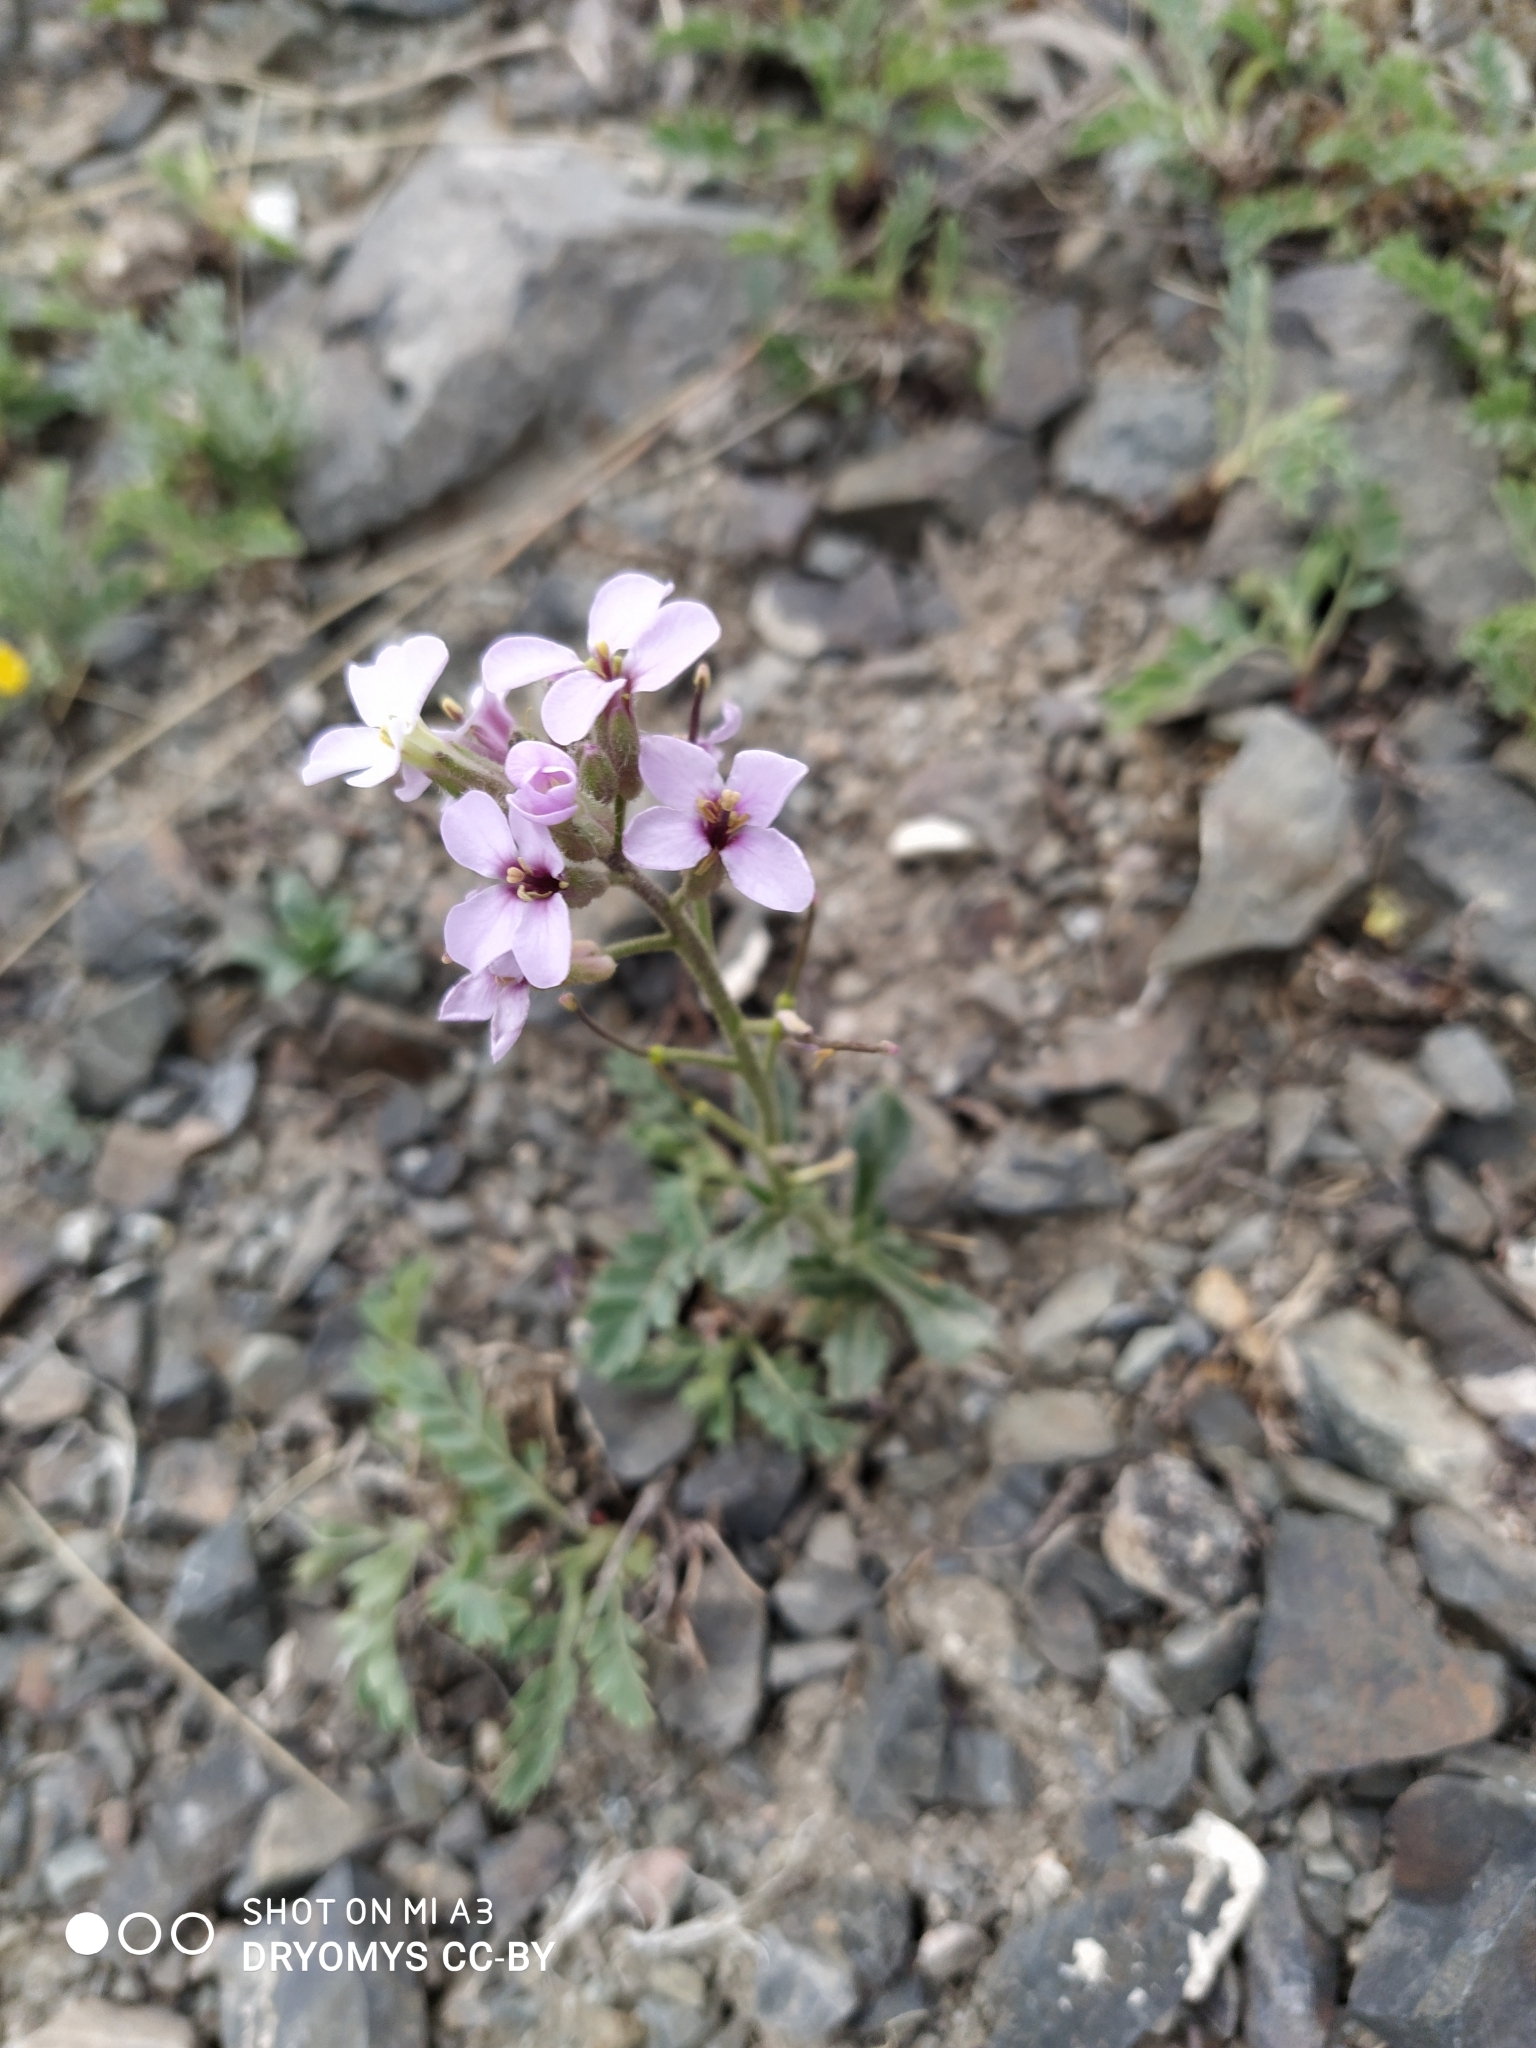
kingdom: Plantae
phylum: Tracheophyta
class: Magnoliopsida
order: Brassicales
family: Brassicaceae
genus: Clausia
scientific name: Clausia aprica
